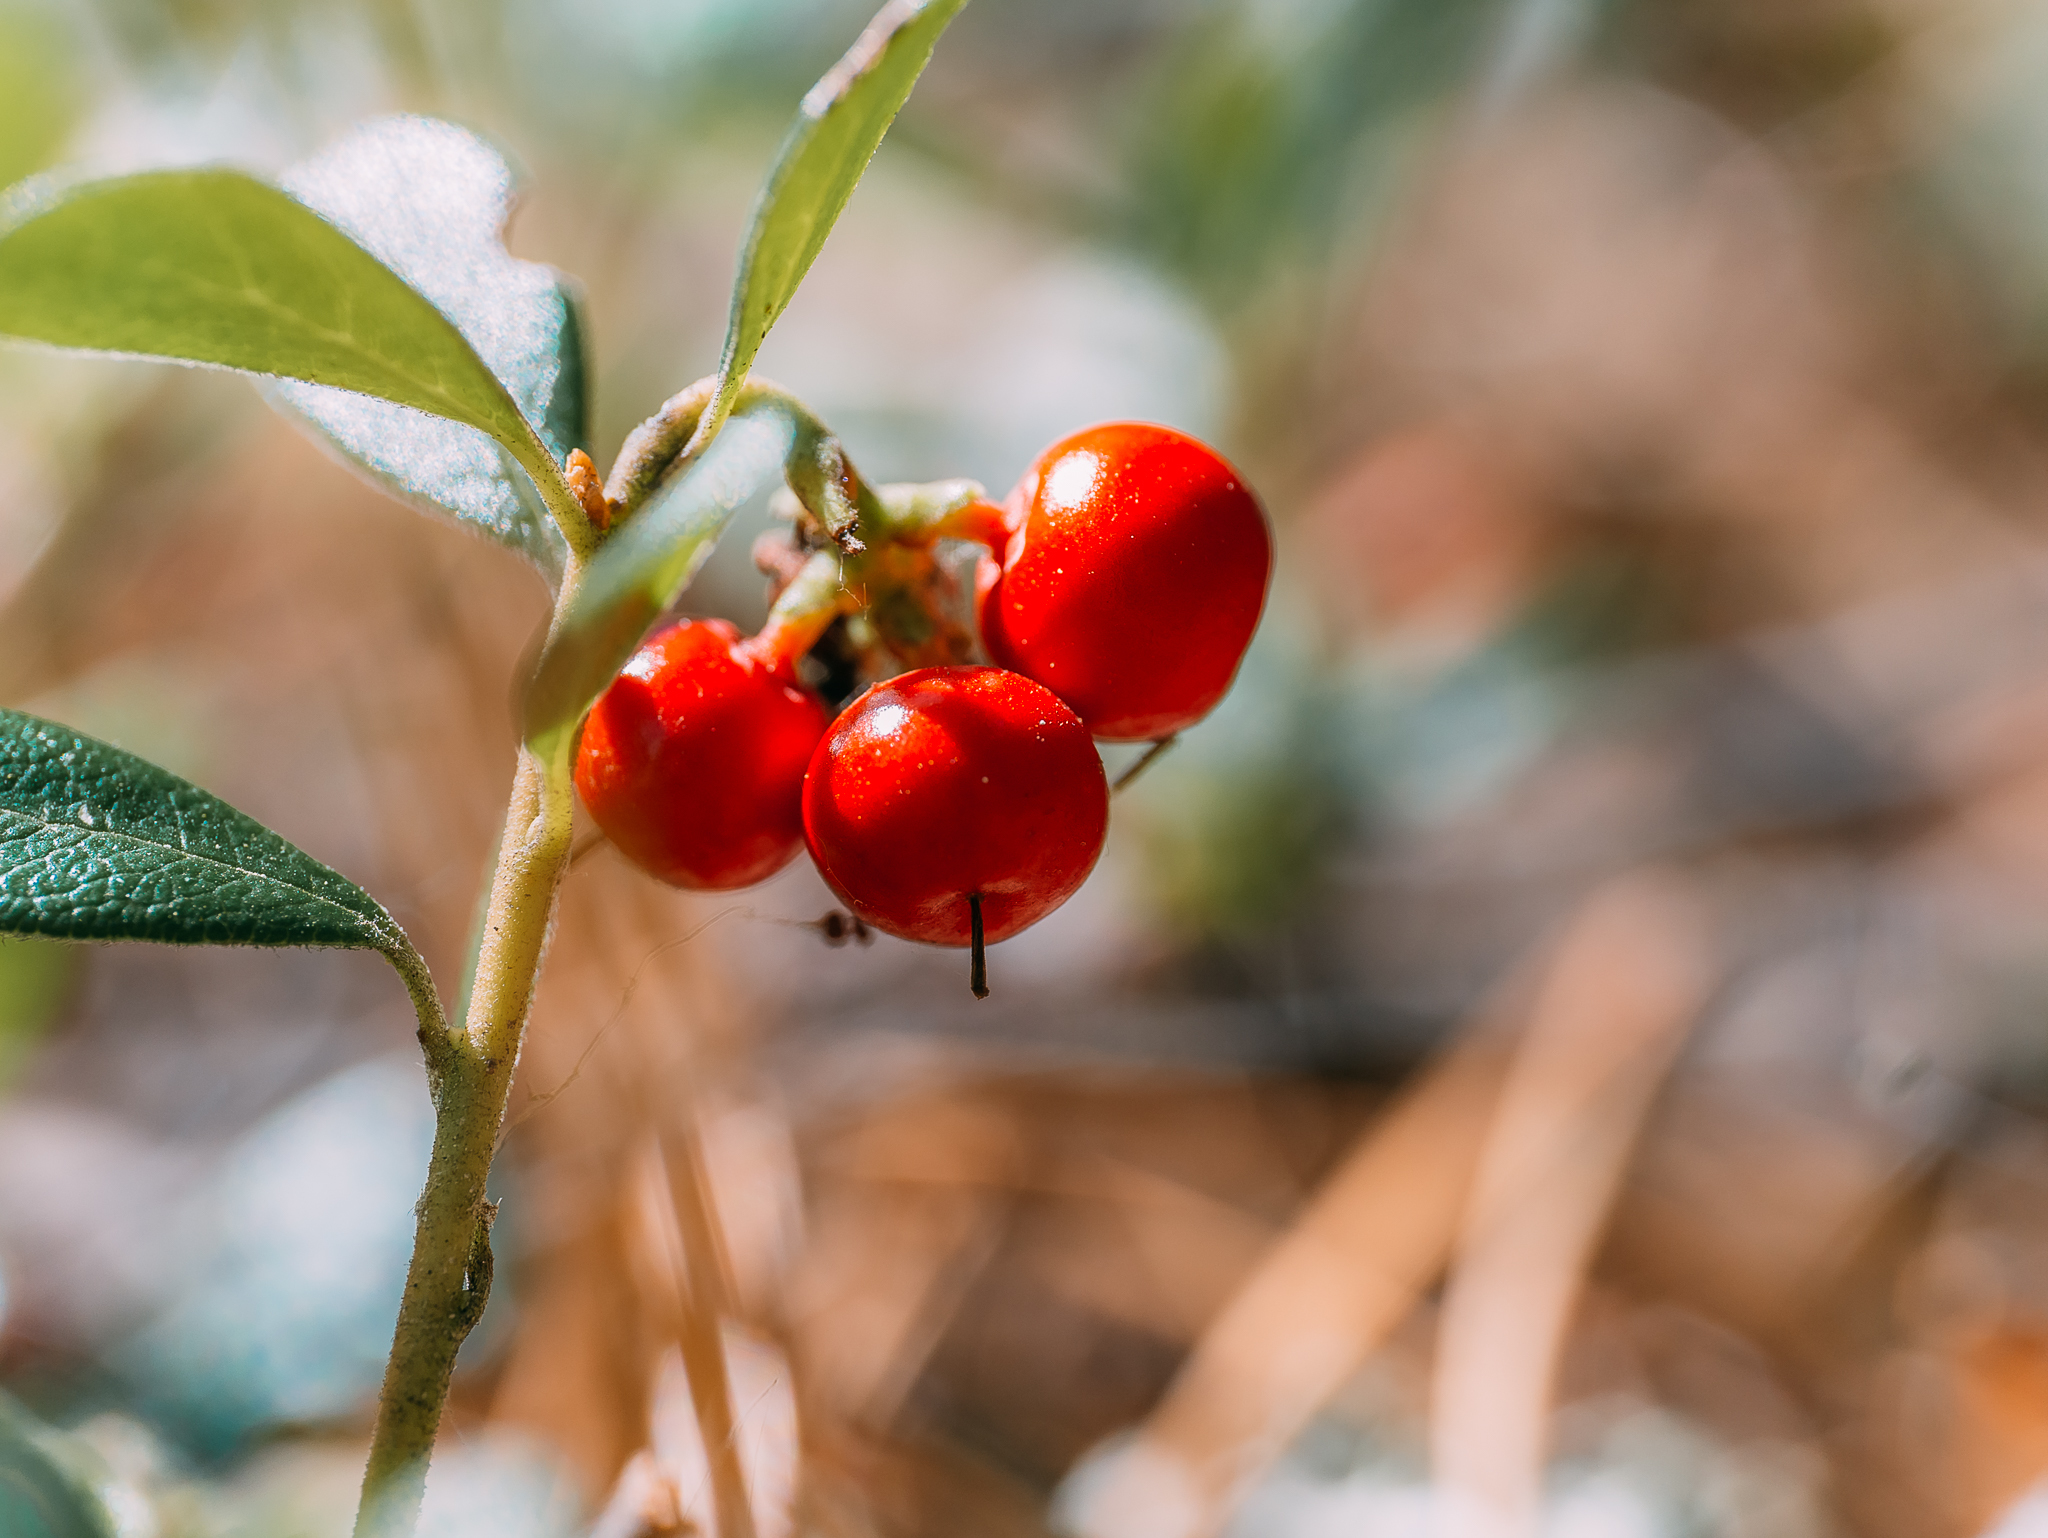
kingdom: Plantae
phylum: Tracheophyta
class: Magnoliopsida
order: Ericales
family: Ericaceae
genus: Arctostaphylos
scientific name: Arctostaphylos uva-ursi
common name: Bearberry
